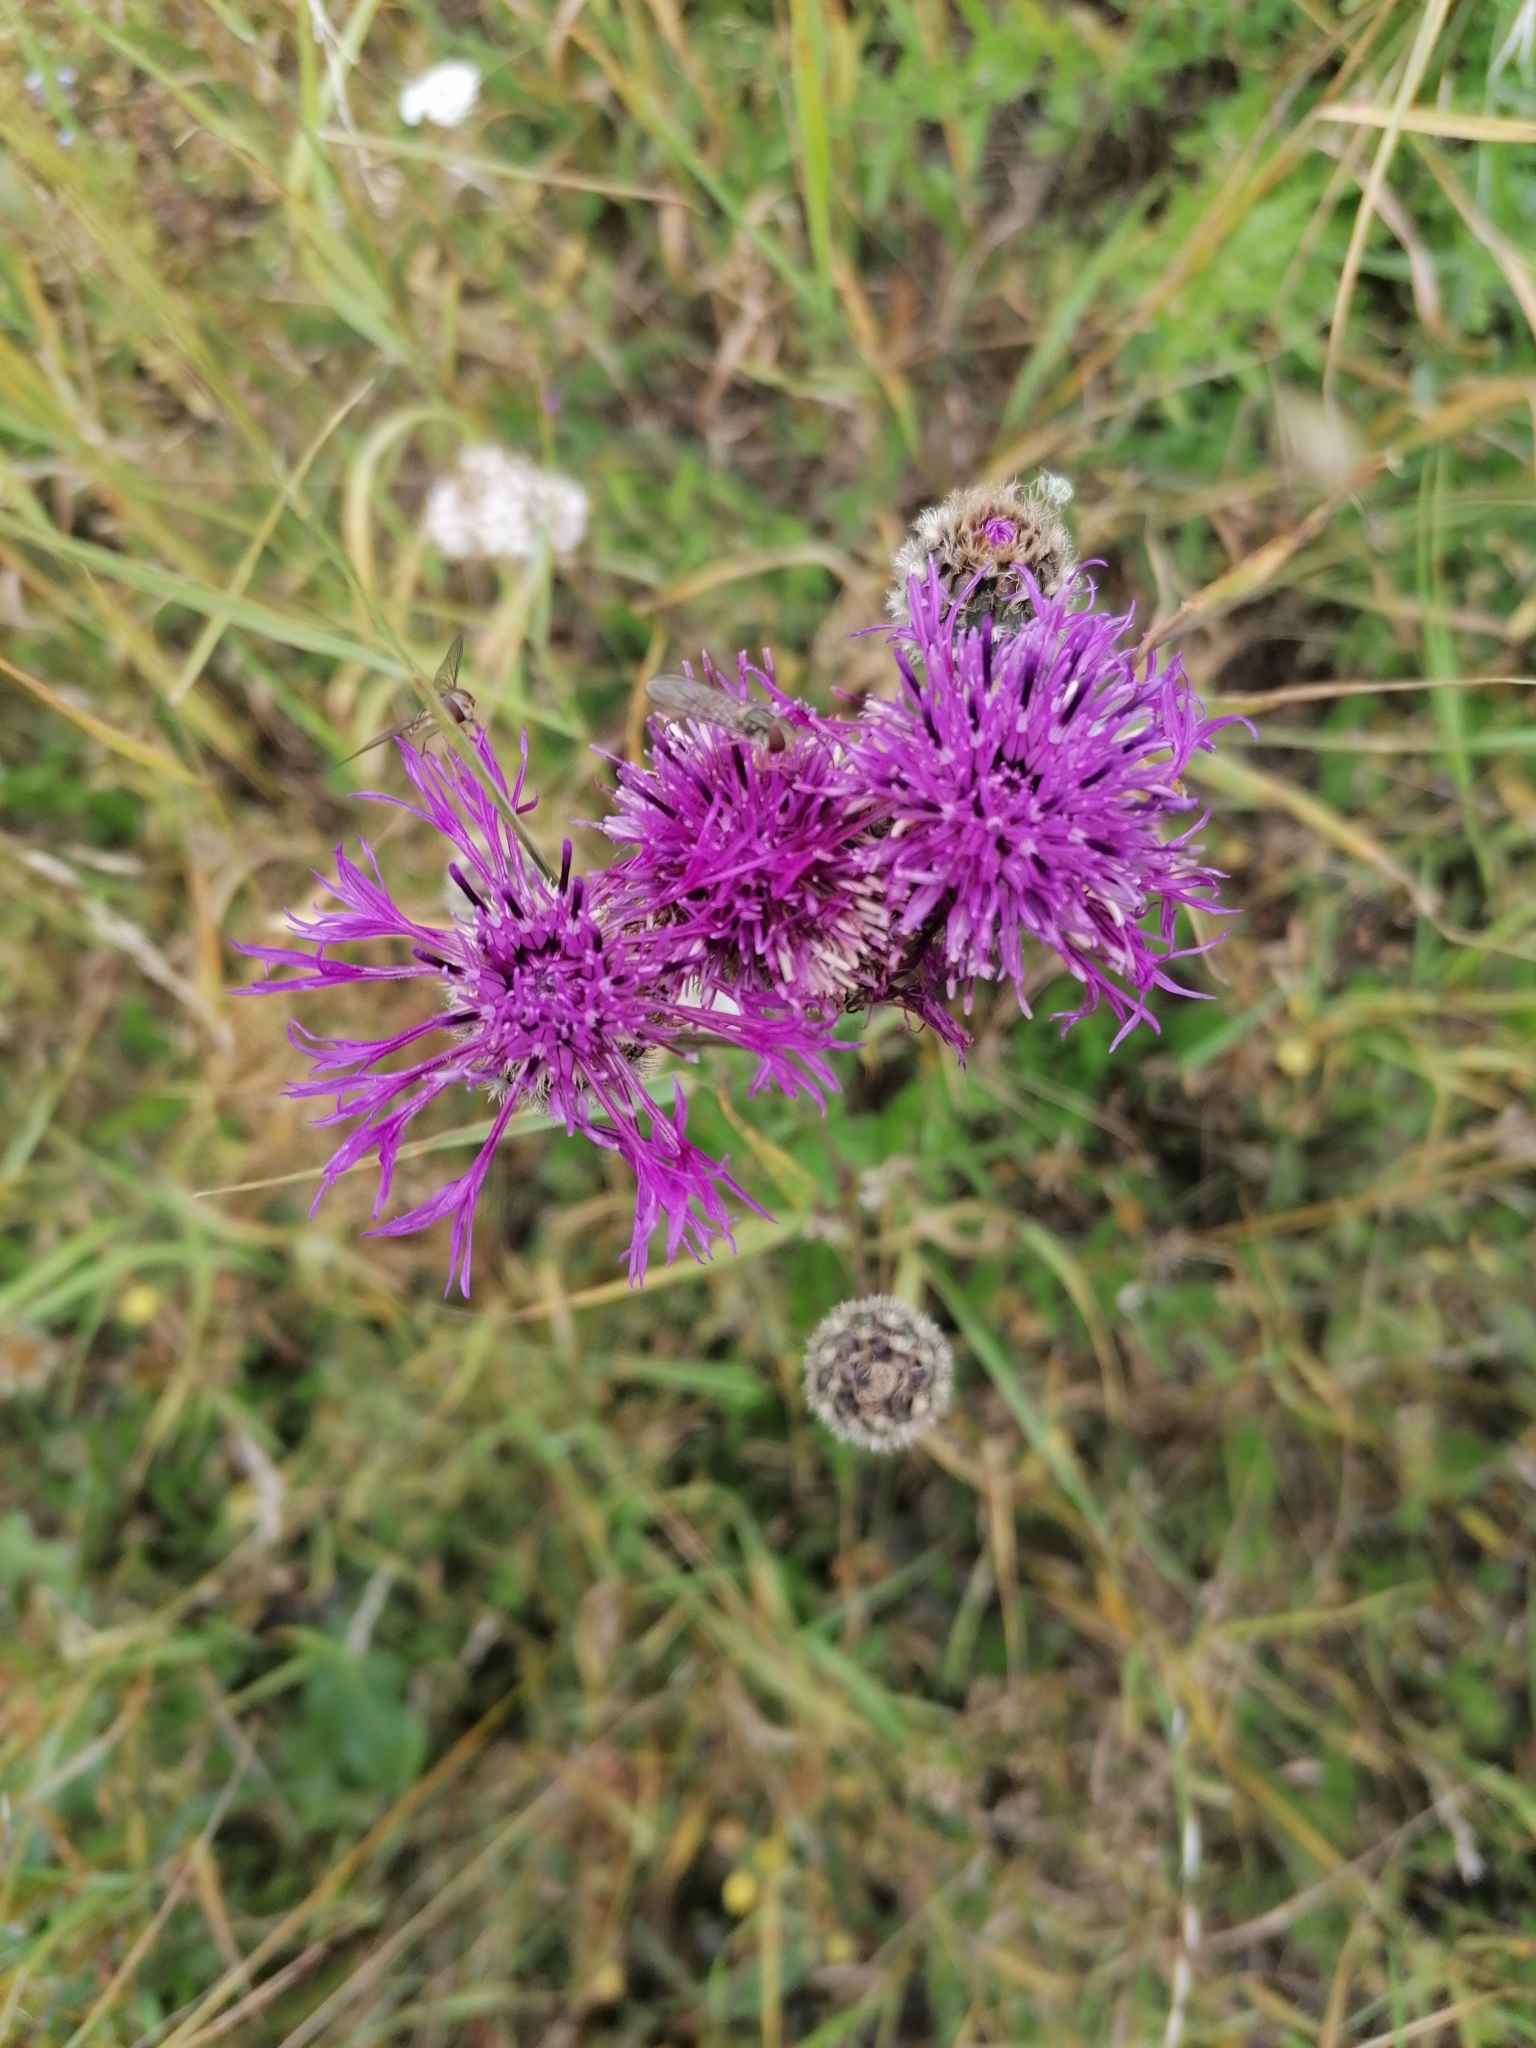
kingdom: Plantae
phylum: Tracheophyta
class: Magnoliopsida
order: Asterales
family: Asteraceae
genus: Centaurea
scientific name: Centaurea scabiosa
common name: Greater knapweed
